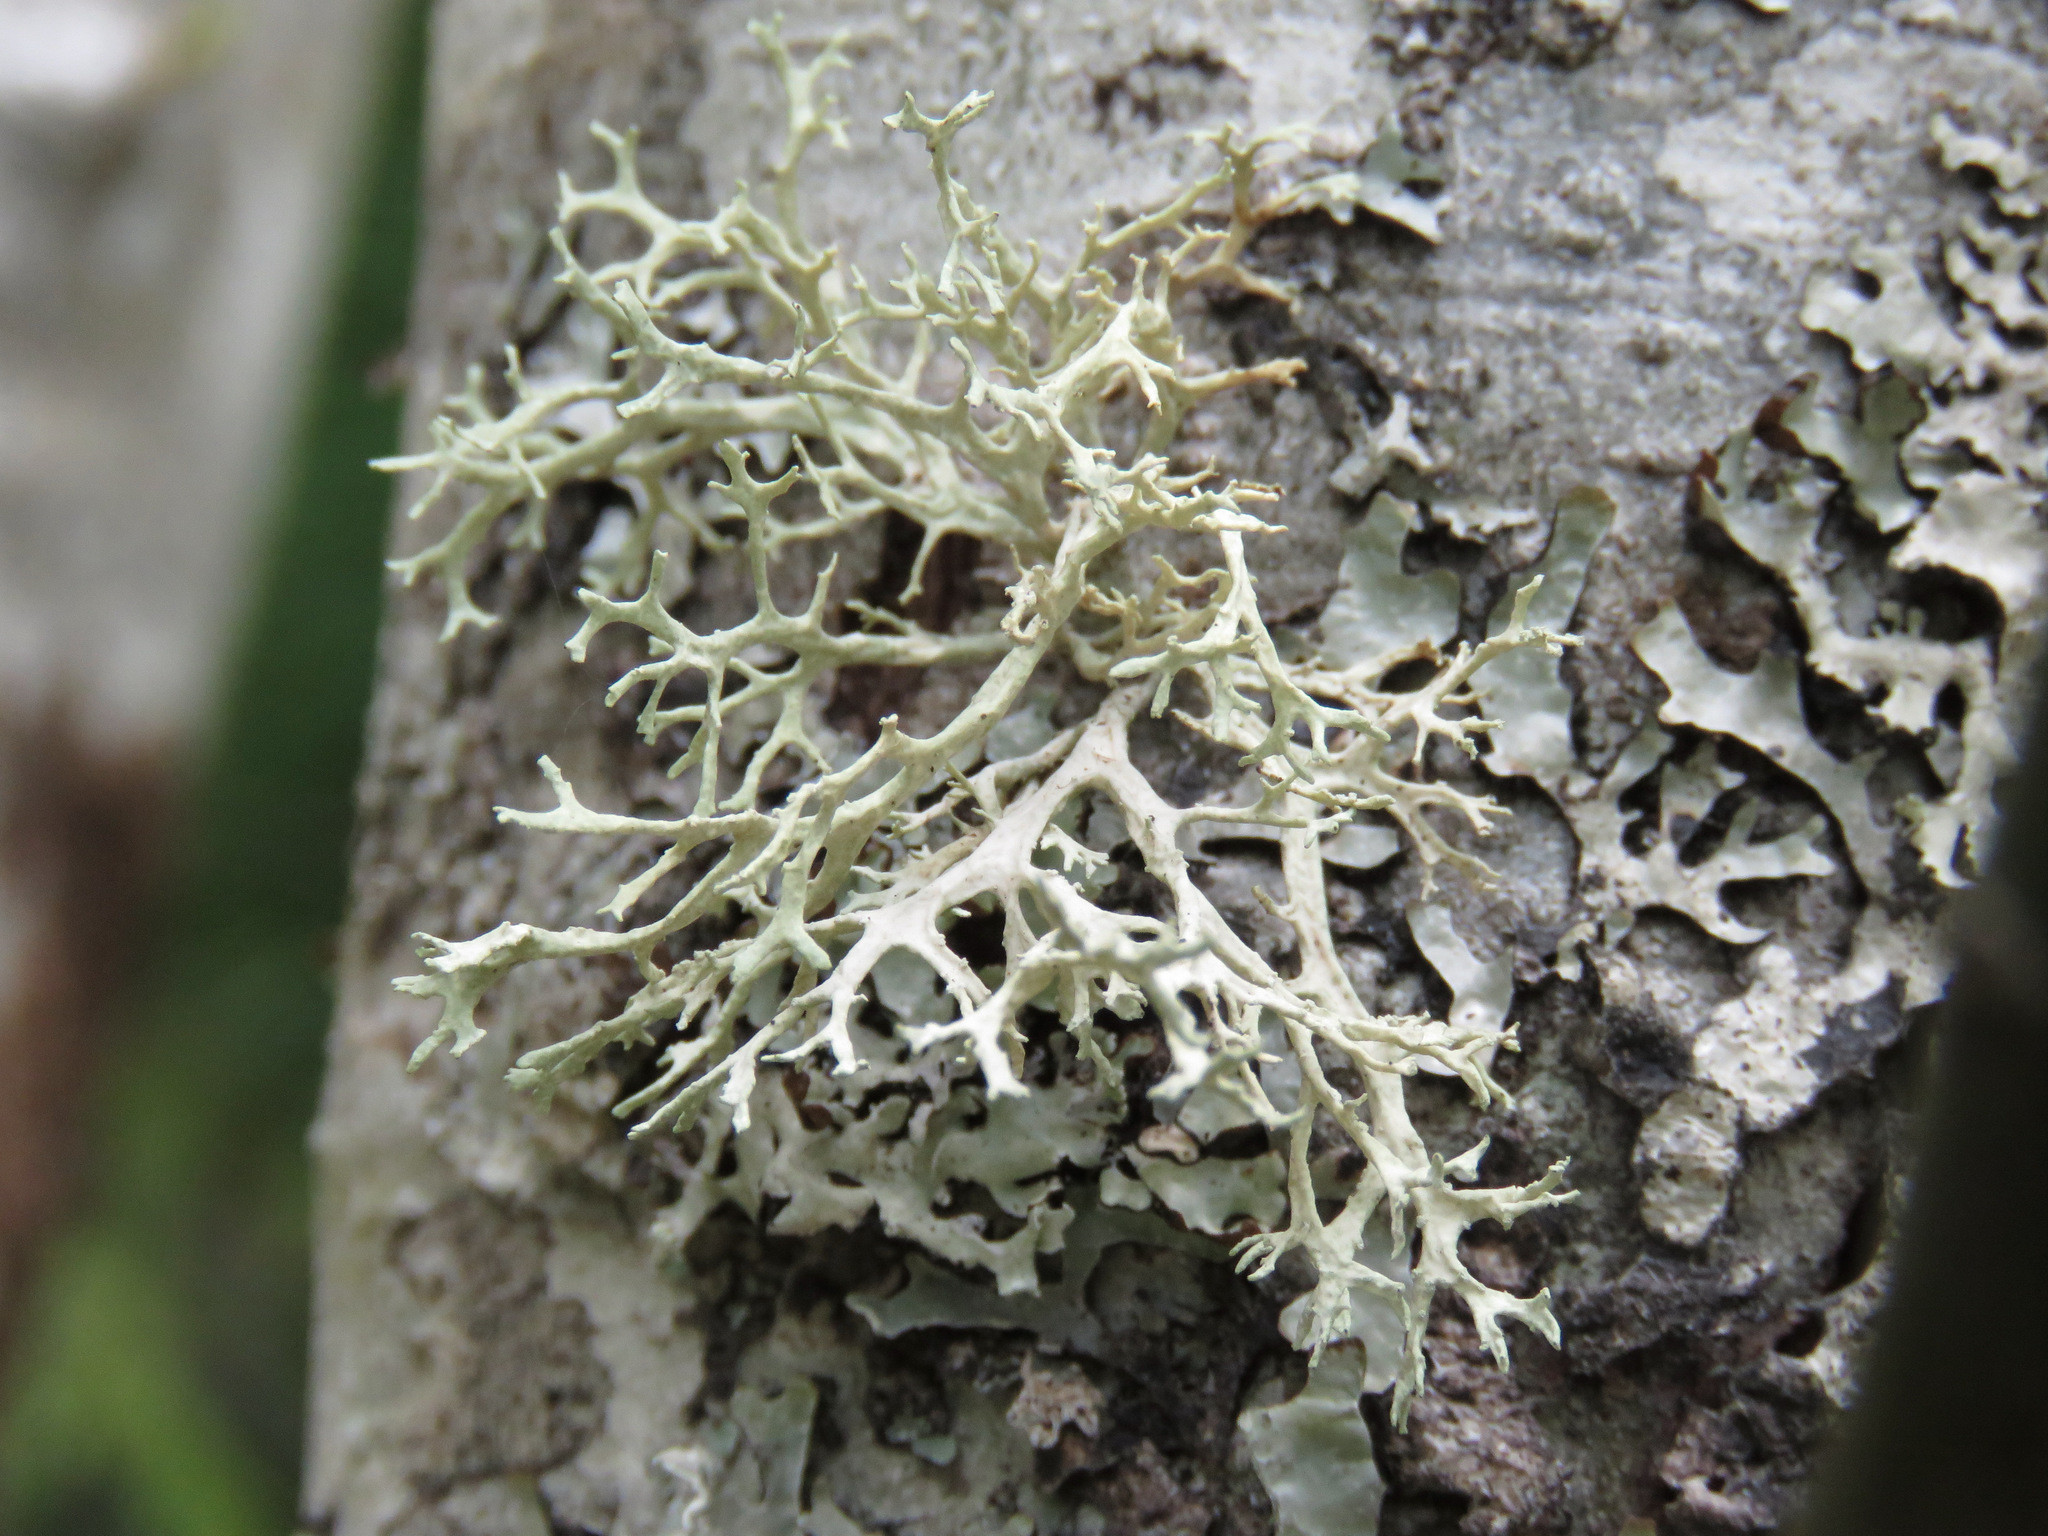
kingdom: Fungi
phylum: Ascomycota
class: Lecanoromycetes
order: Lecanorales
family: Parmeliaceae
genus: Evernia
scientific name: Evernia prunastri
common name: Oak moss
